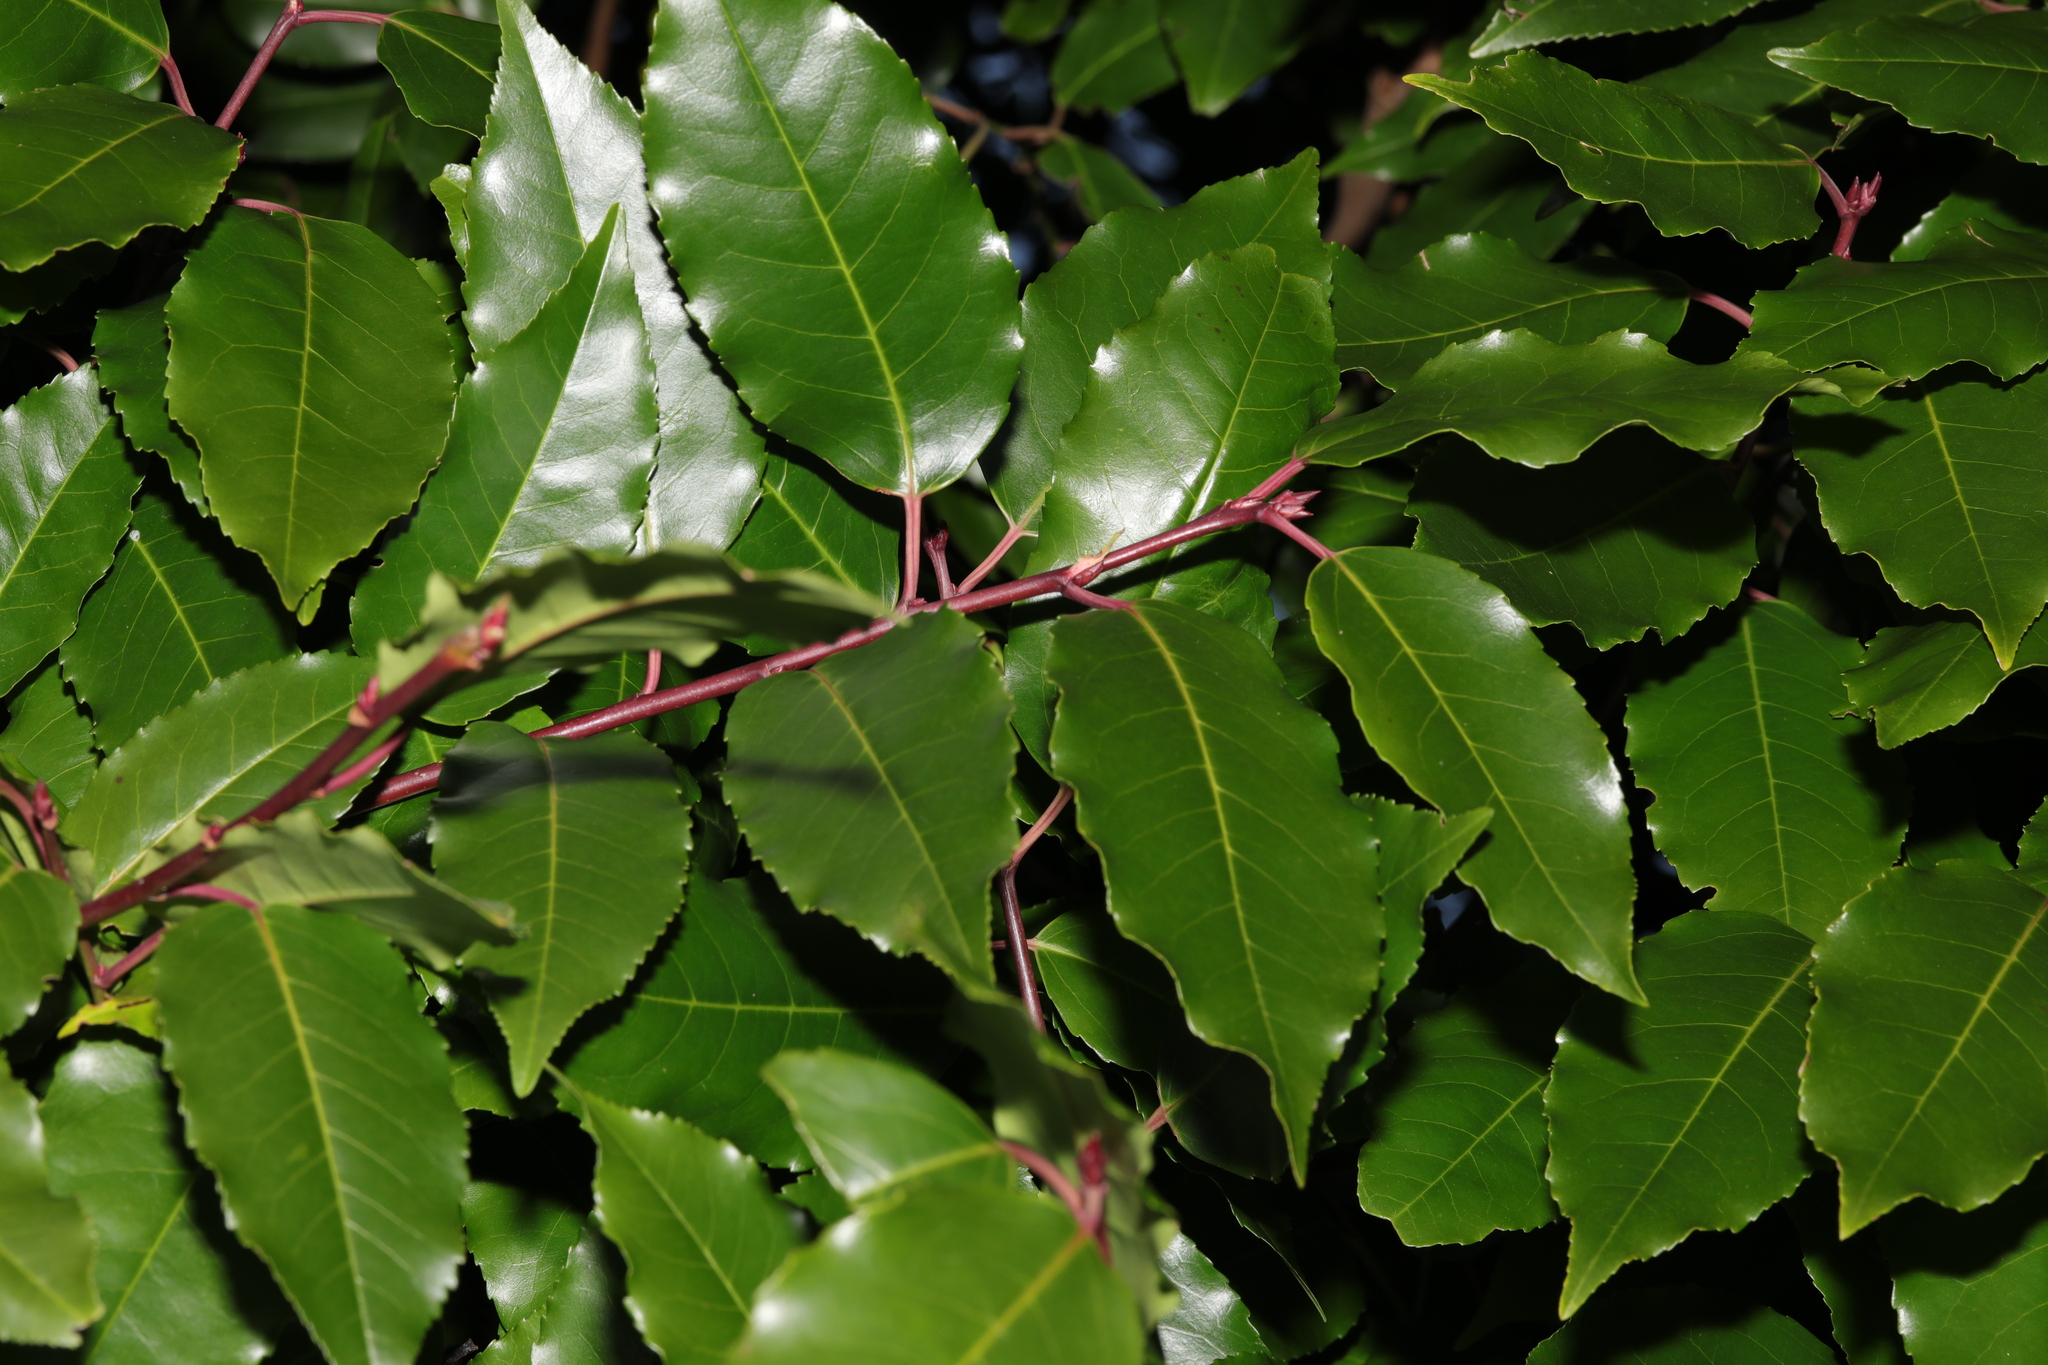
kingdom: Plantae
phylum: Tracheophyta
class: Magnoliopsida
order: Rosales
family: Rosaceae
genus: Prunus
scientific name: Prunus lusitanica
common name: Portugal laurel
